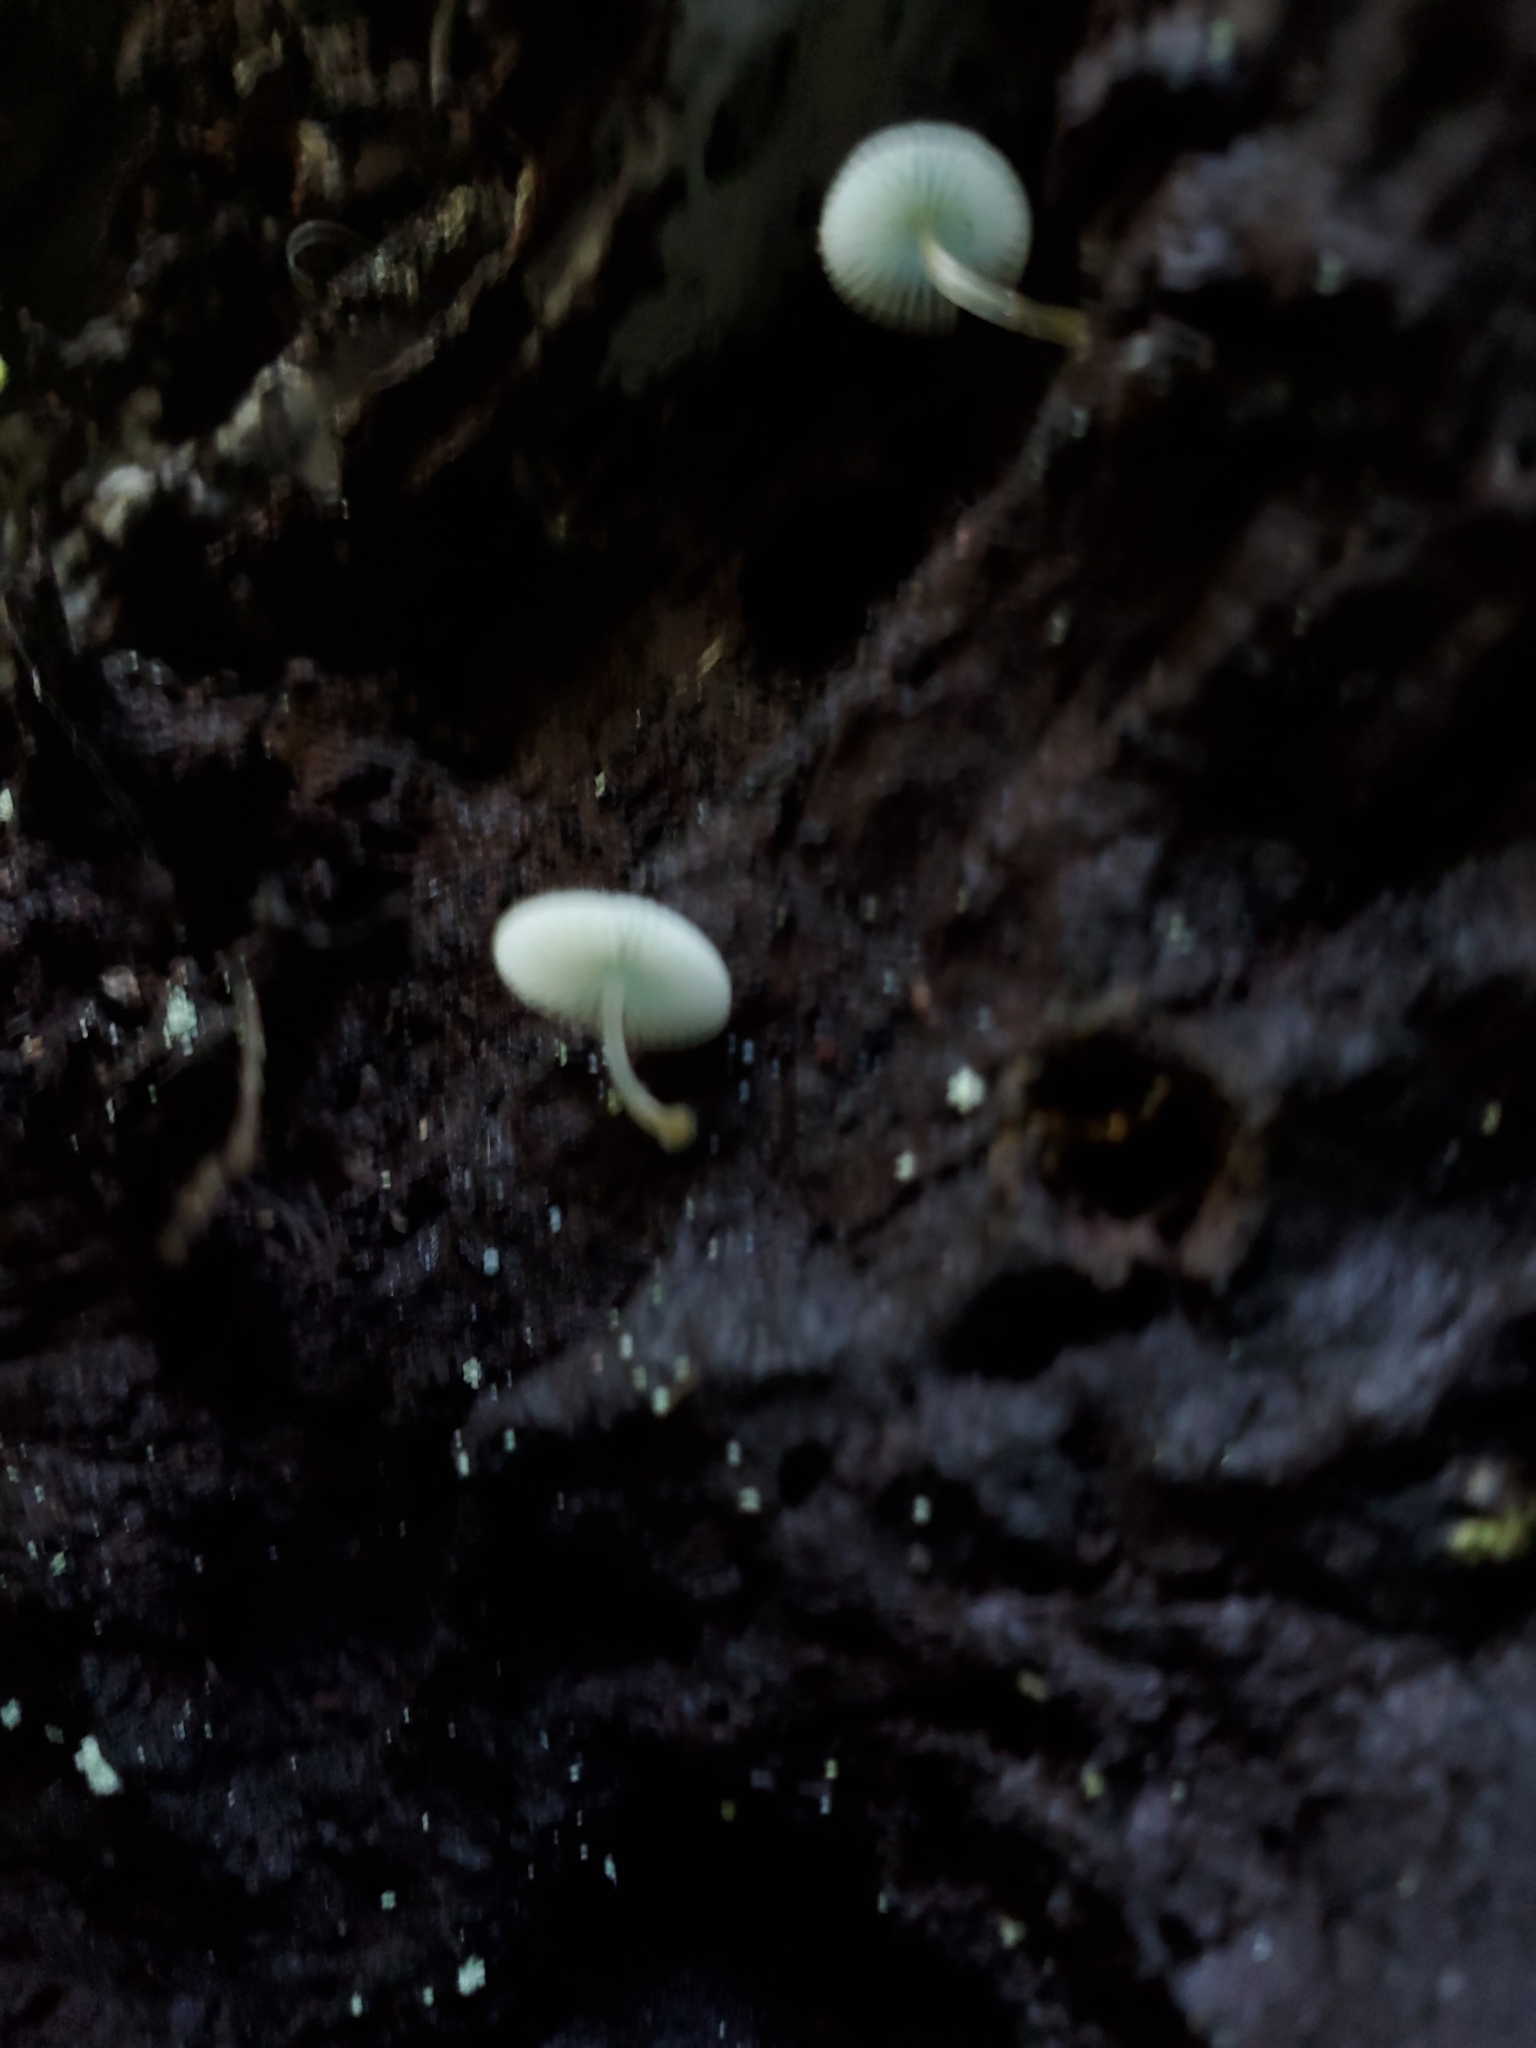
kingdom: Fungi
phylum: Basidiomycota
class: Agaricomycetes
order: Agaricales
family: Mycenaceae
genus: Mycena
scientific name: Mycena interrupta
